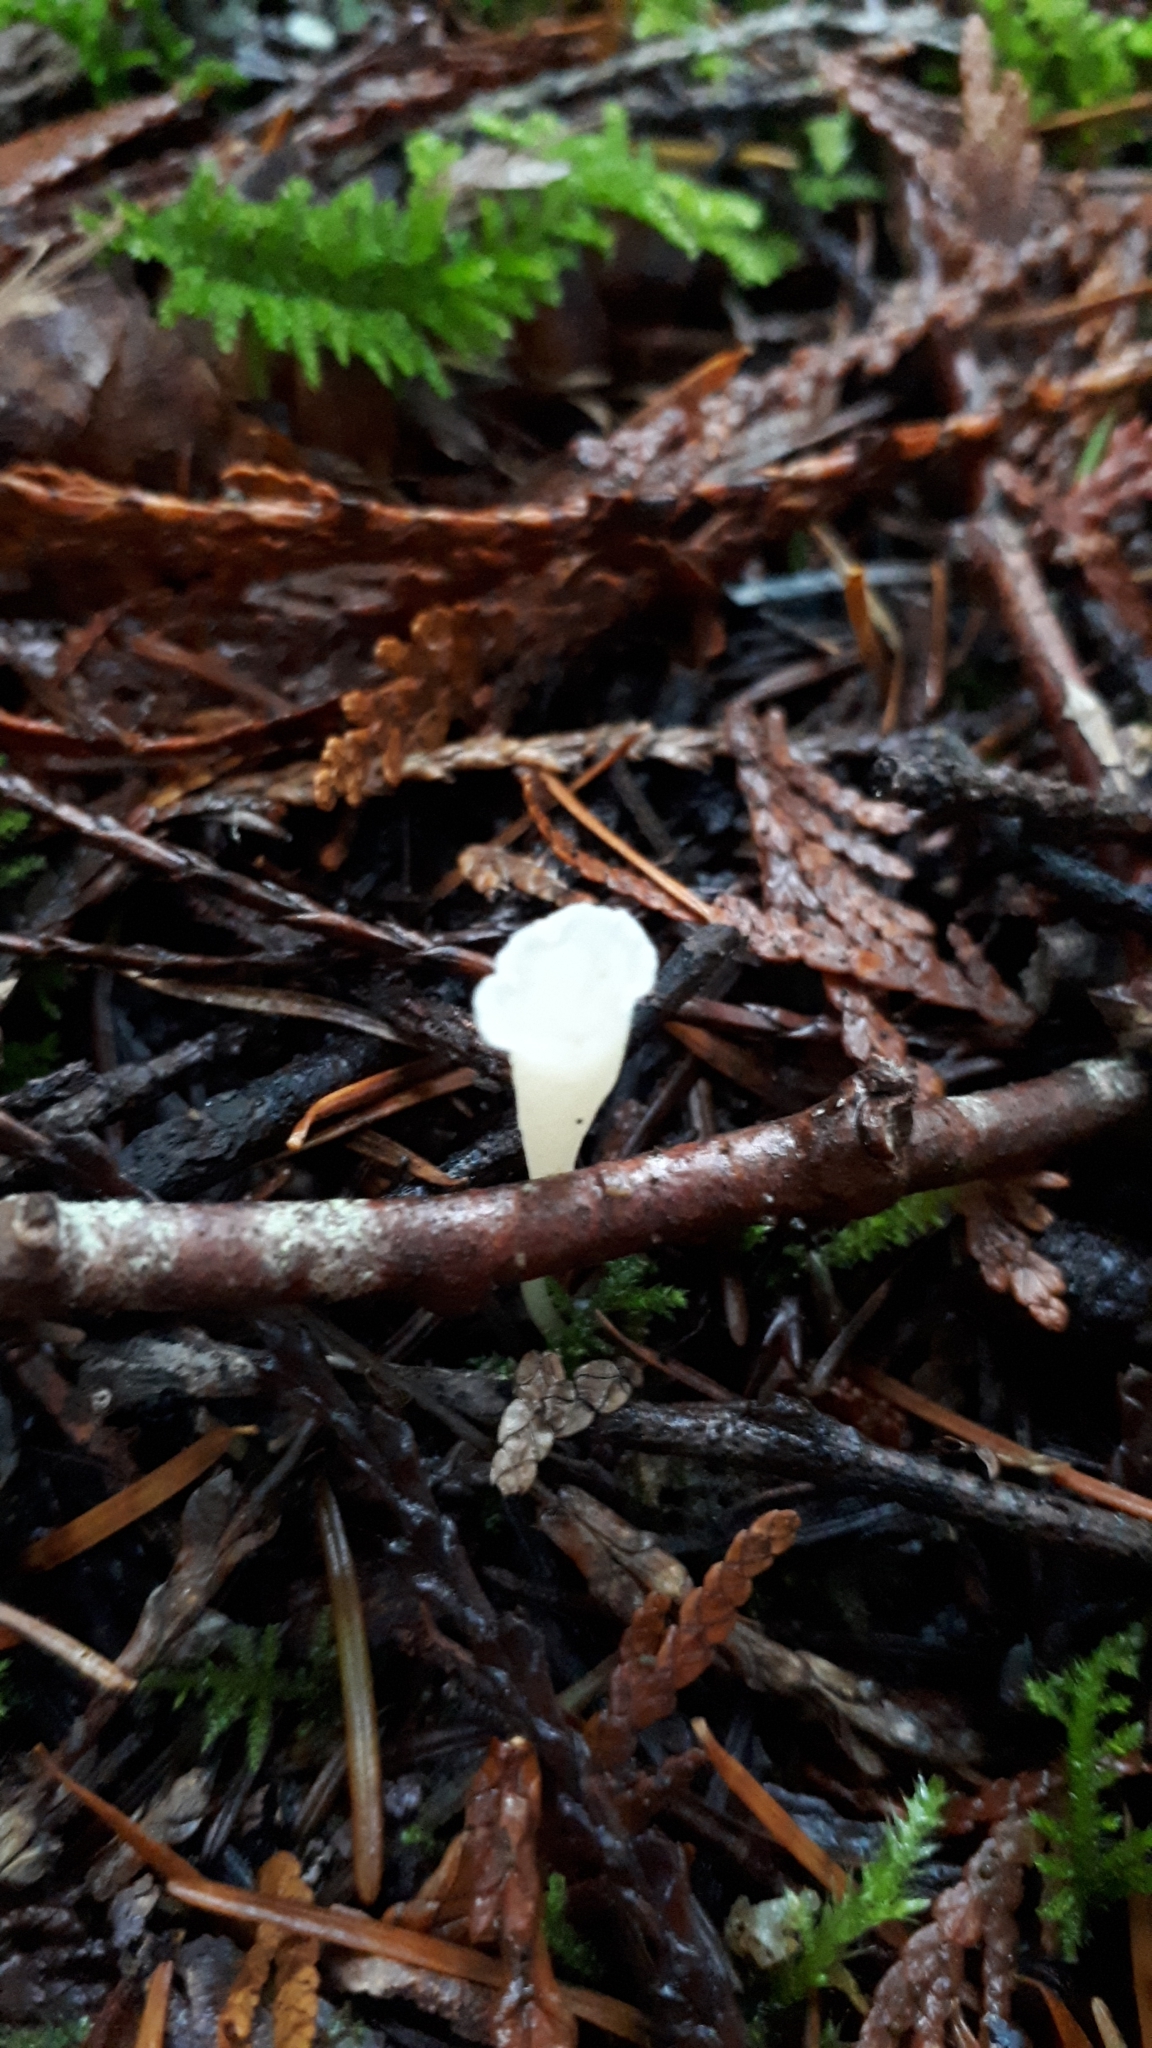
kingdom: Fungi
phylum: Basidiomycota
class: Agaricomycetes
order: Agaricales
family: Clavariaceae
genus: Clavicorona
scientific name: Clavicorona taxophila
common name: Yew club
